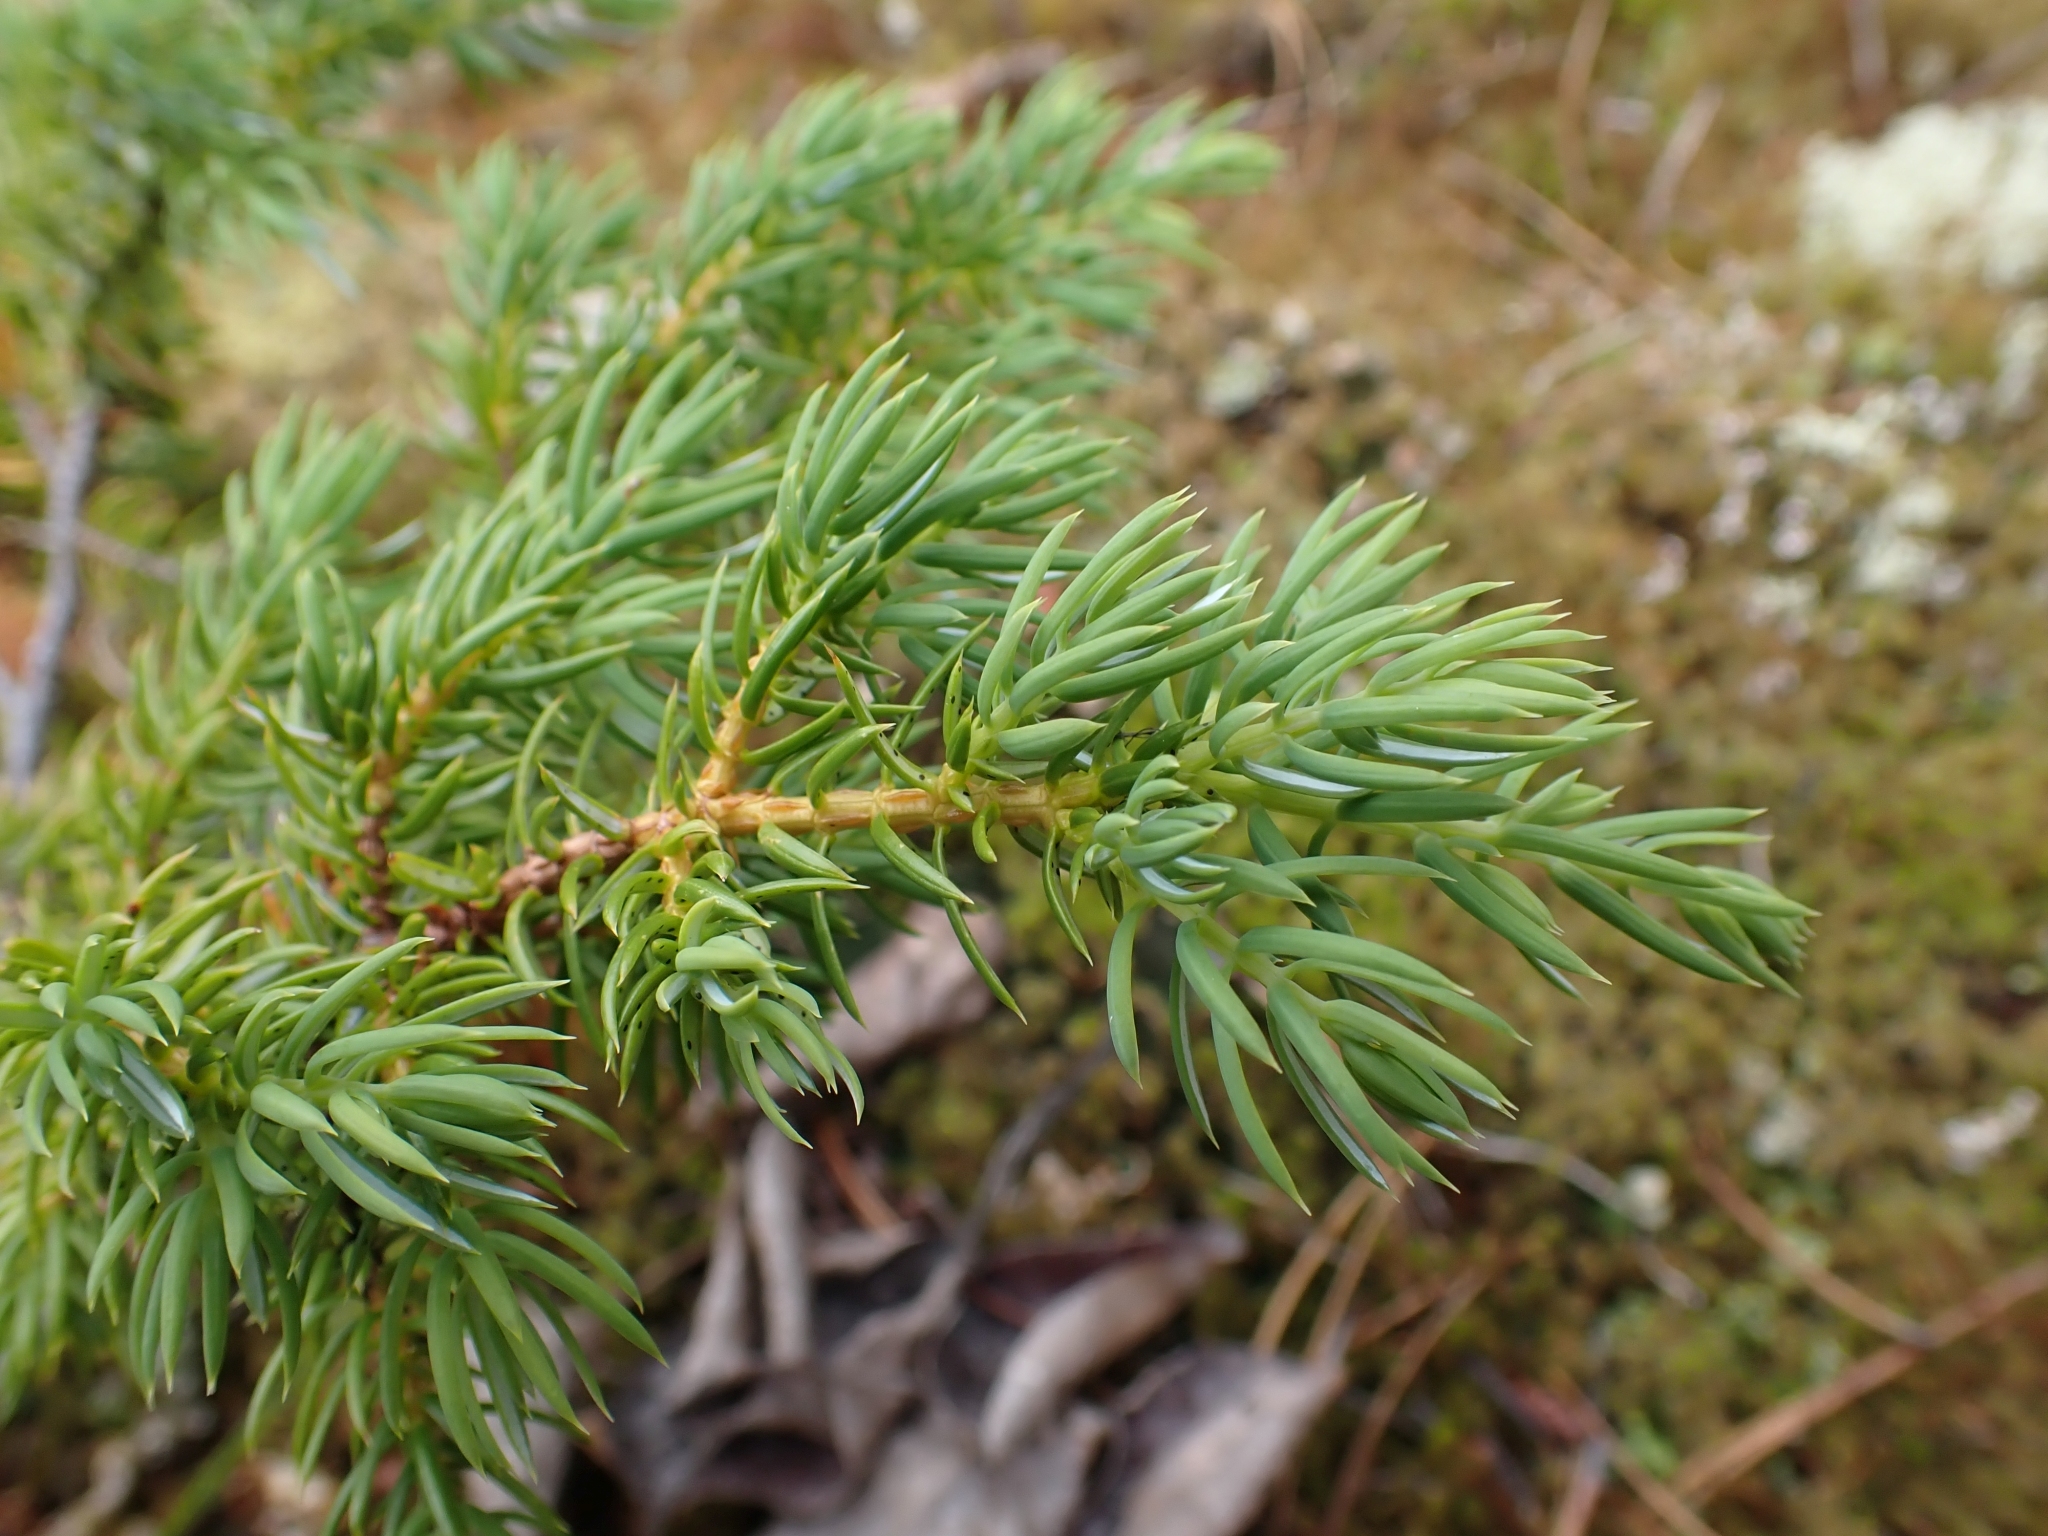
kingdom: Plantae
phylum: Tracheophyta
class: Pinopsida
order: Pinales
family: Cupressaceae
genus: Juniperus
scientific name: Juniperus communis
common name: Common juniper
